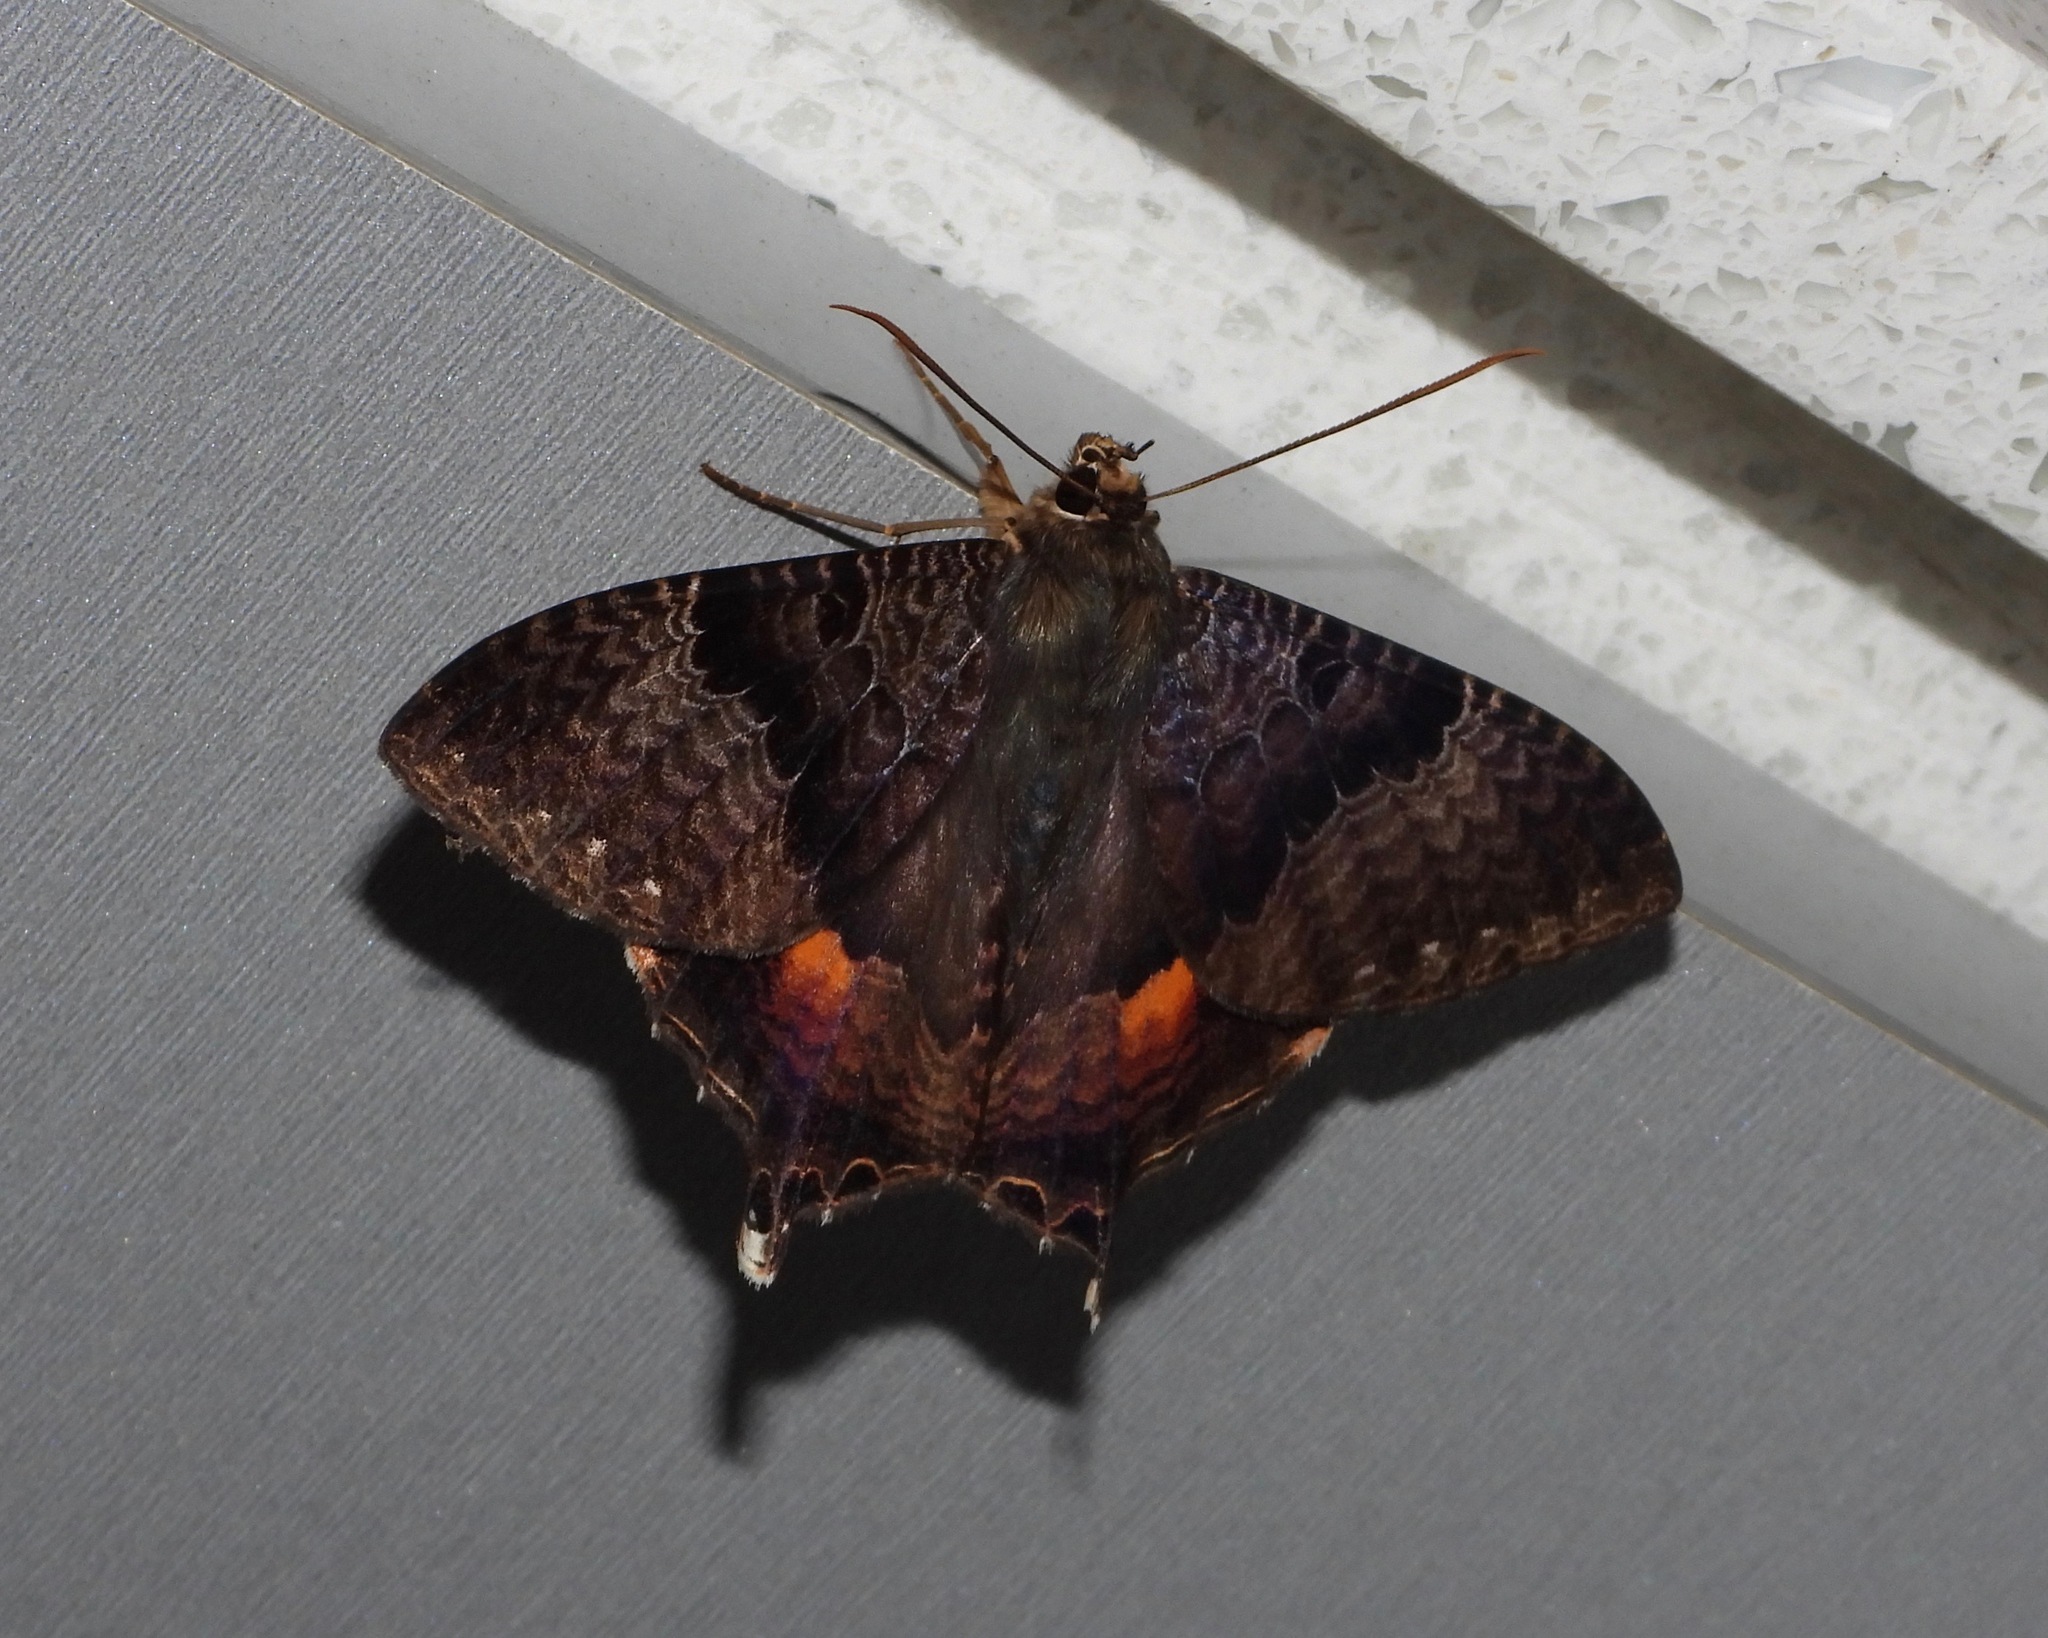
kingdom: Animalia
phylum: Arthropoda
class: Insecta
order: Lepidoptera
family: Sematuridae
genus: Coronidia
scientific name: Coronidia subpicta
